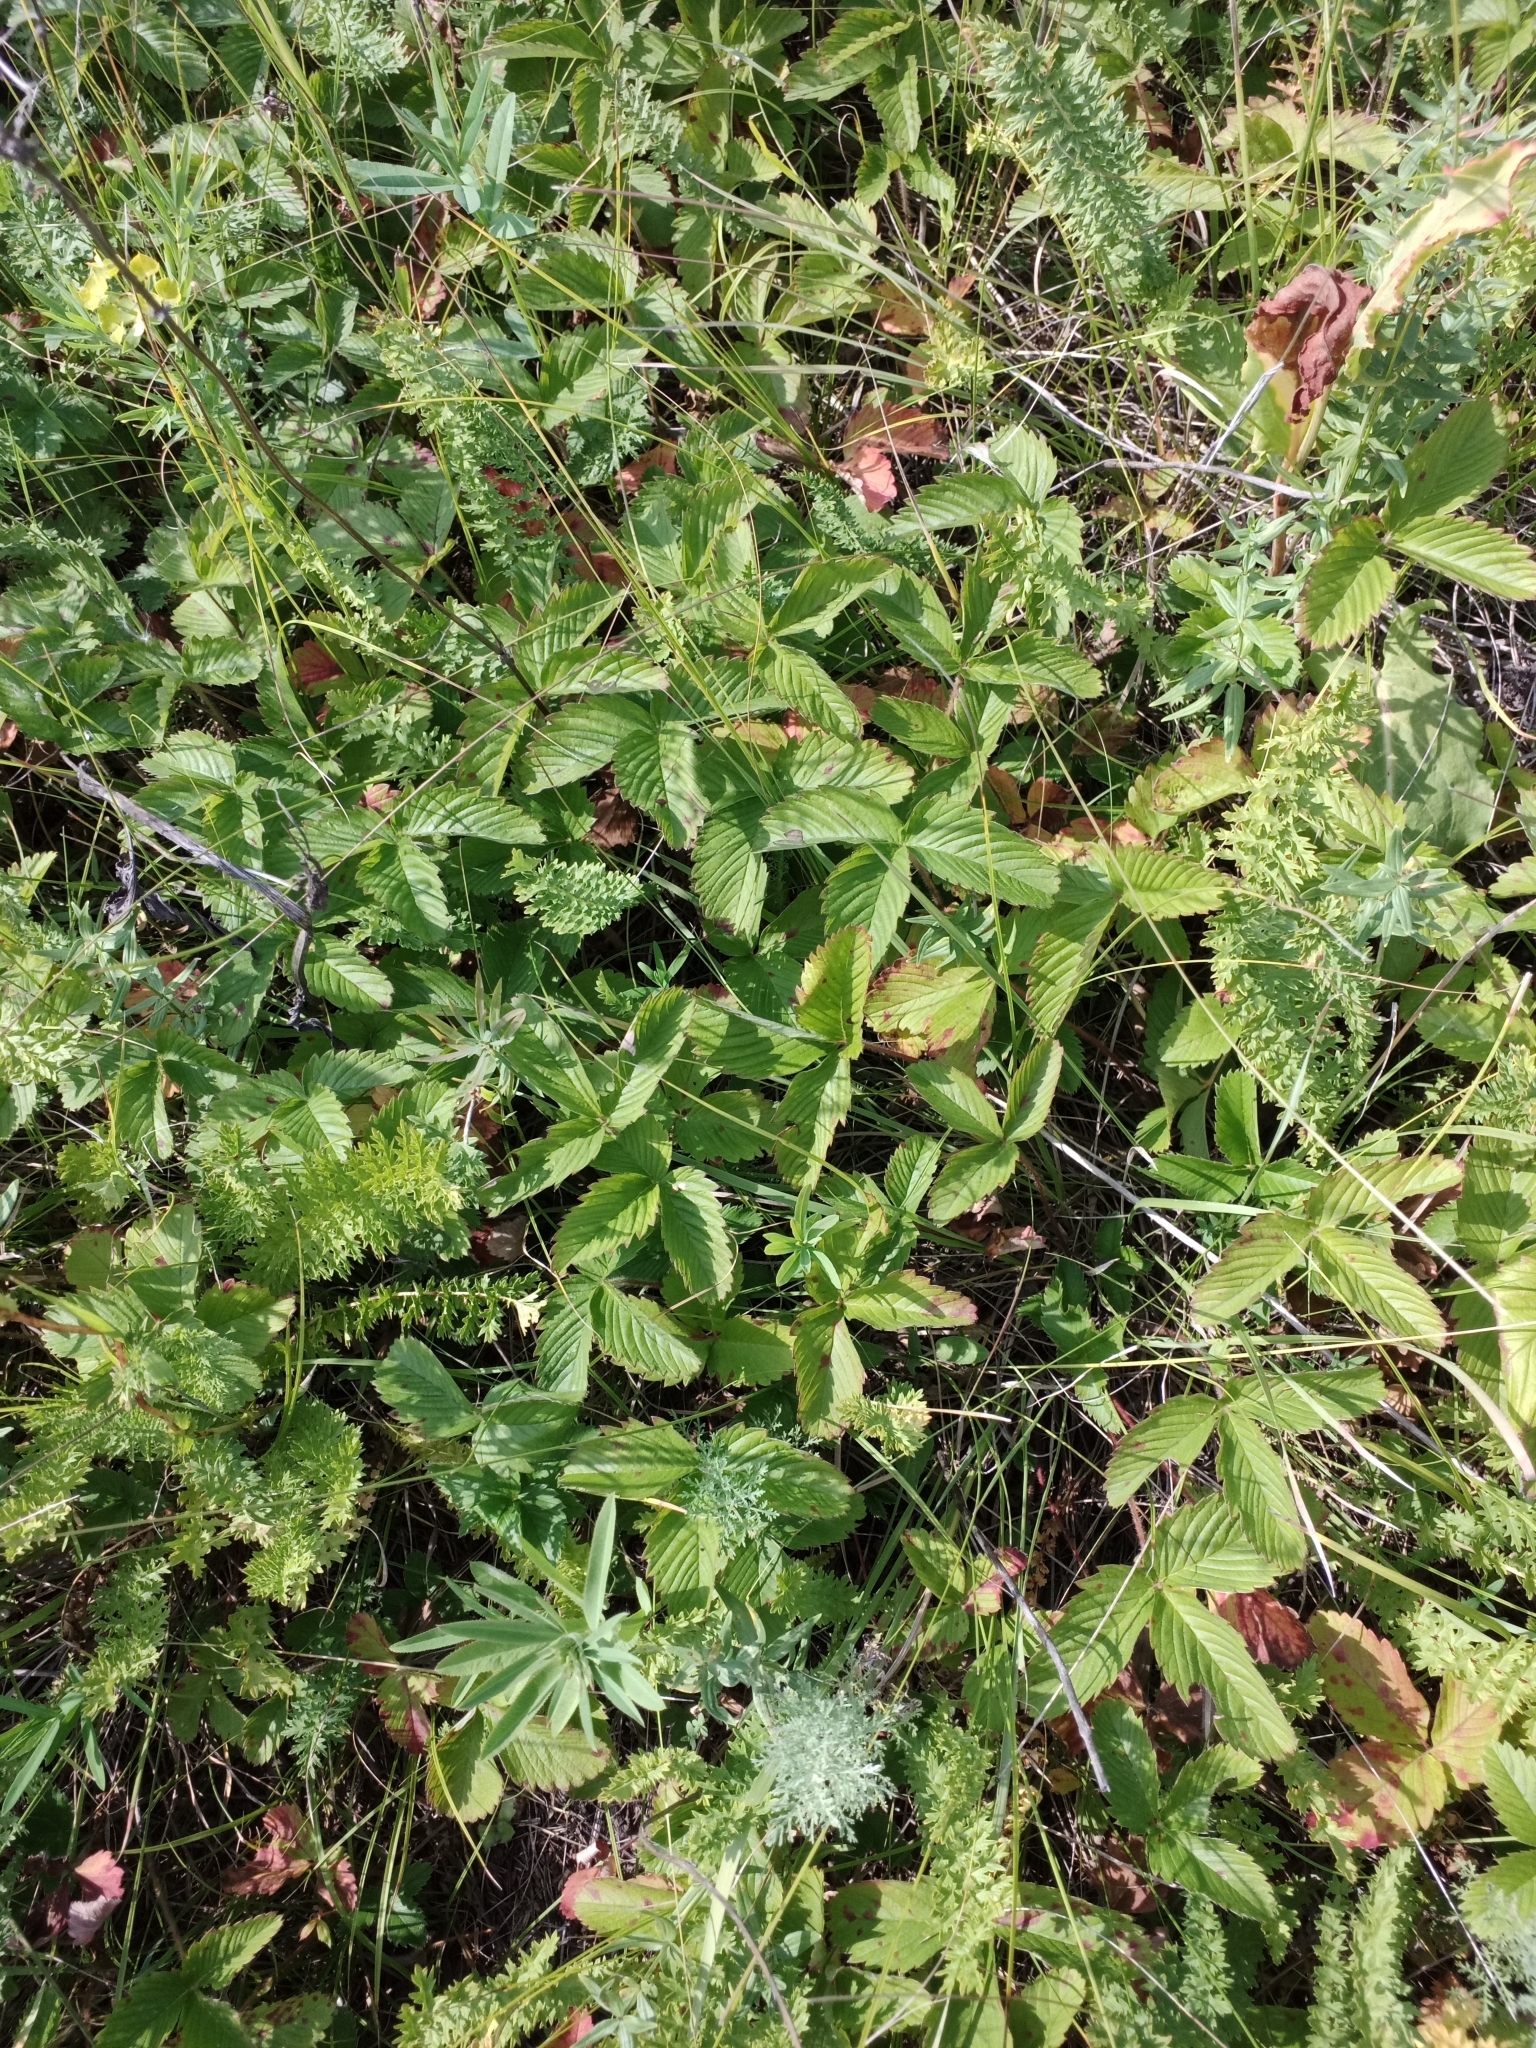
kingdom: Plantae
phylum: Tracheophyta
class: Magnoliopsida
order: Rosales
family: Rosaceae
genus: Fragaria
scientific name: Fragaria viridis
